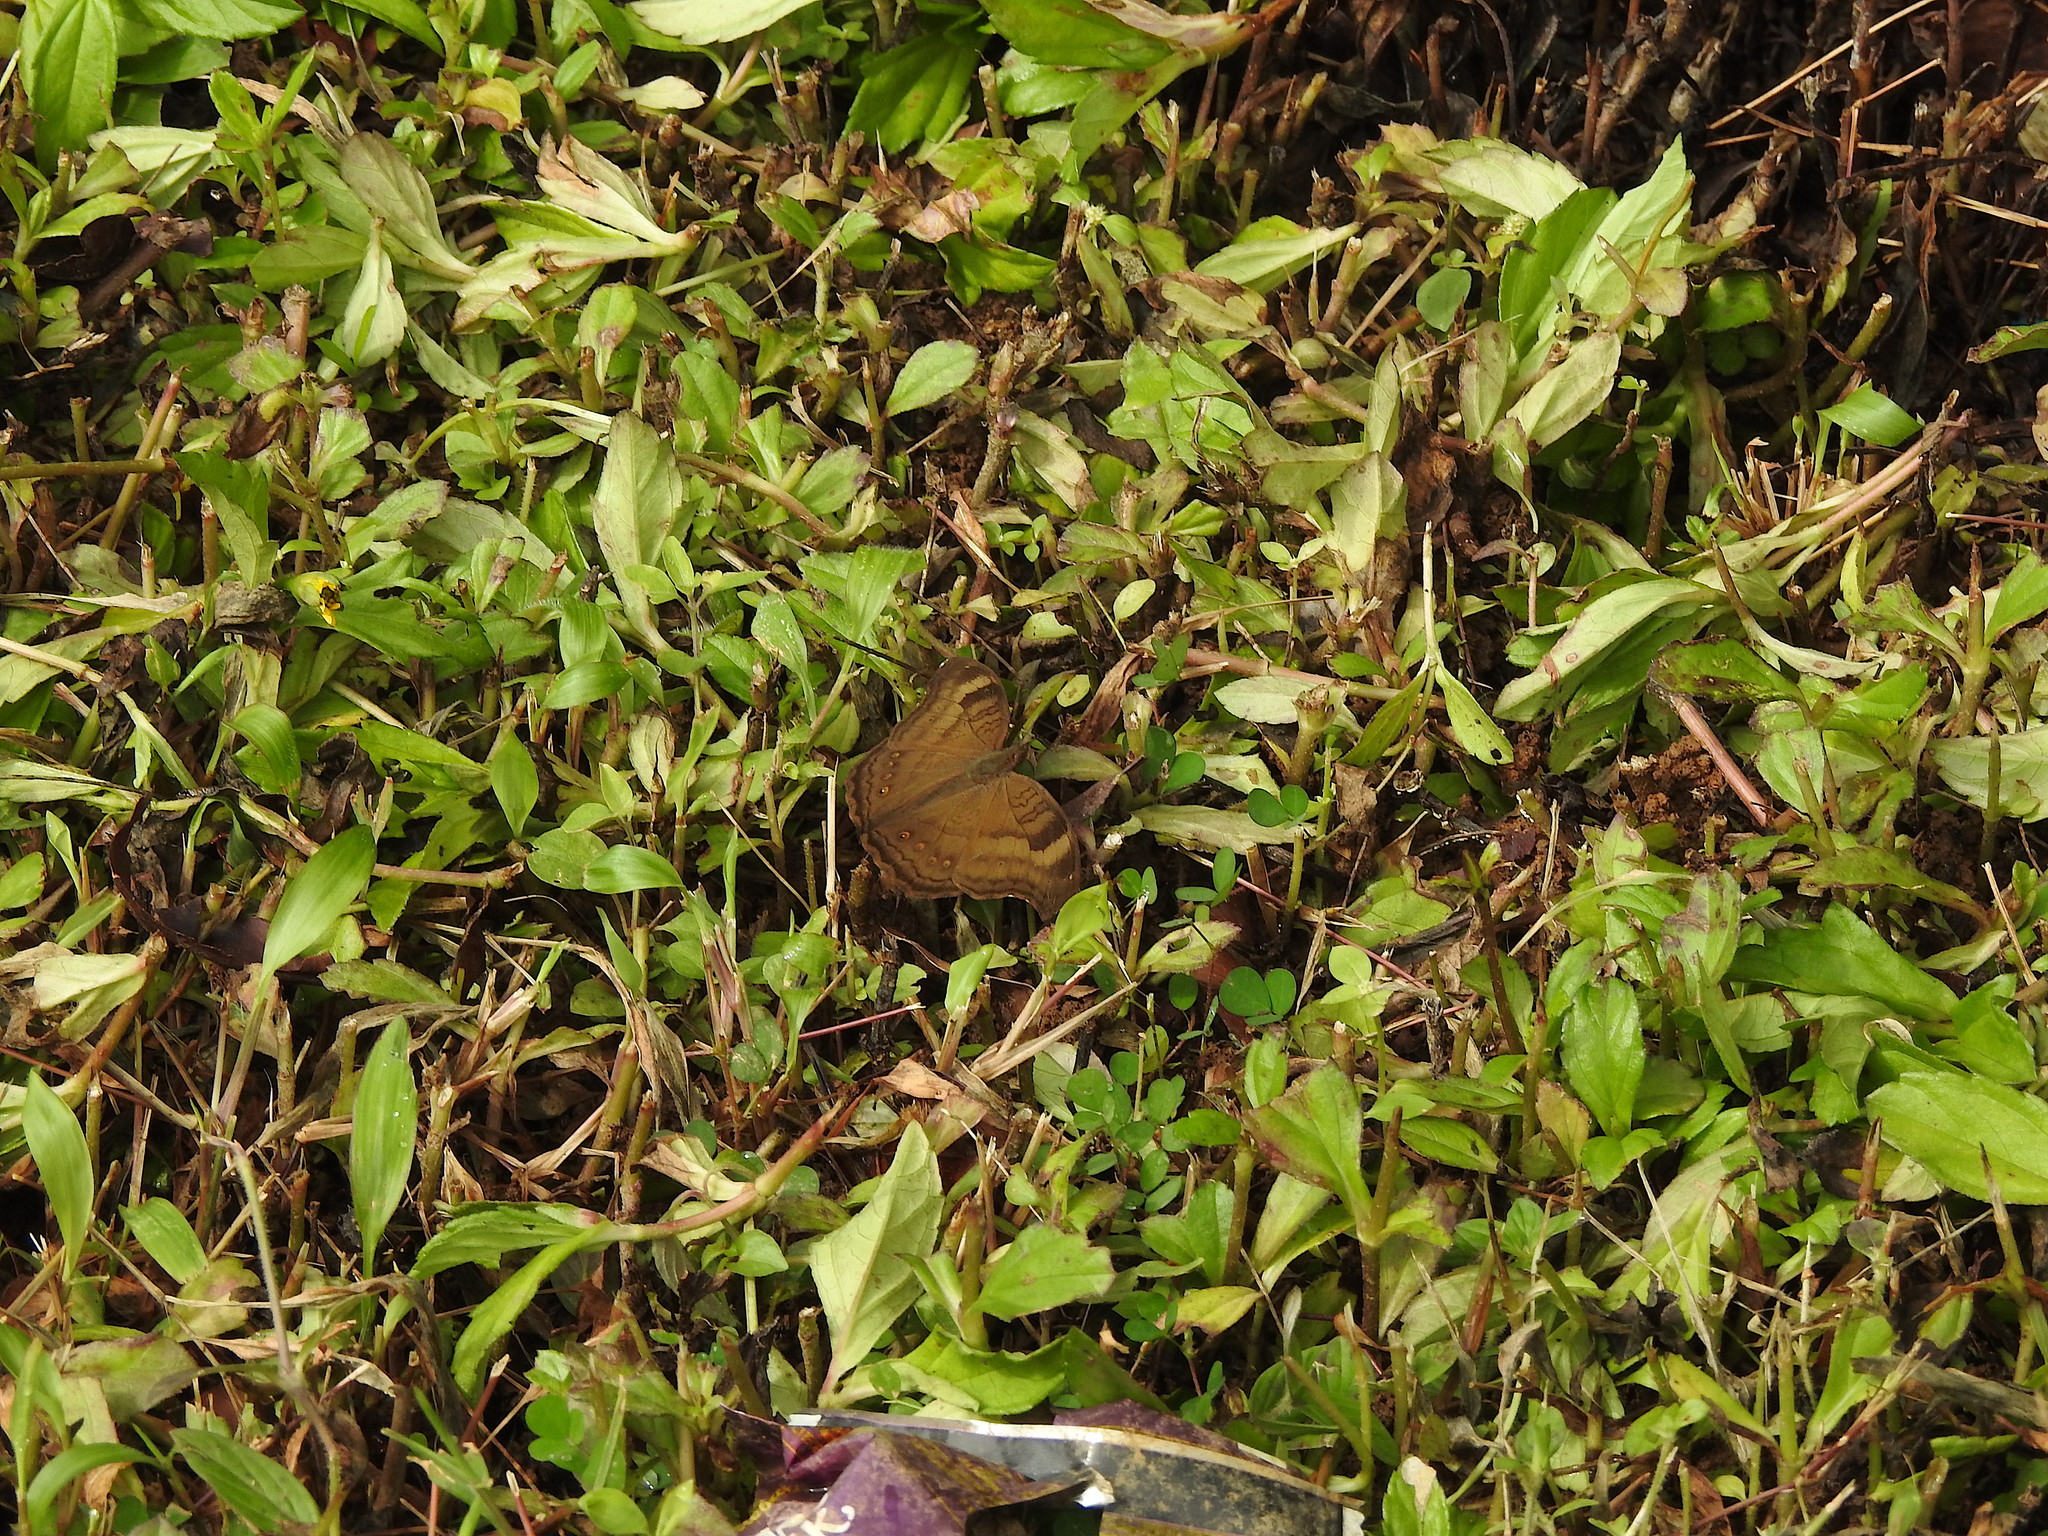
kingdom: Animalia
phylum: Arthropoda
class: Insecta
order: Lepidoptera
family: Nymphalidae
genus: Junonia
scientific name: Junonia iphita
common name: Chocolate pansy
